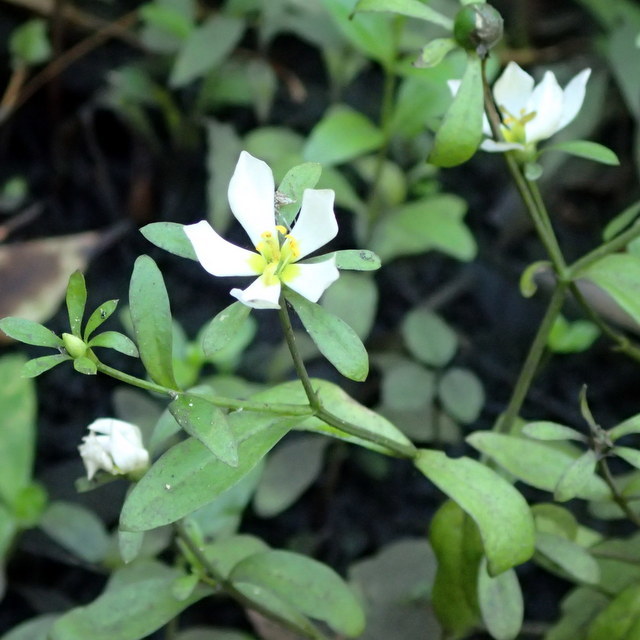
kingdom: Plantae
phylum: Tracheophyta
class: Magnoliopsida
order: Gentianales
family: Gentianaceae
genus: Sabatia
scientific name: Sabatia calycina
